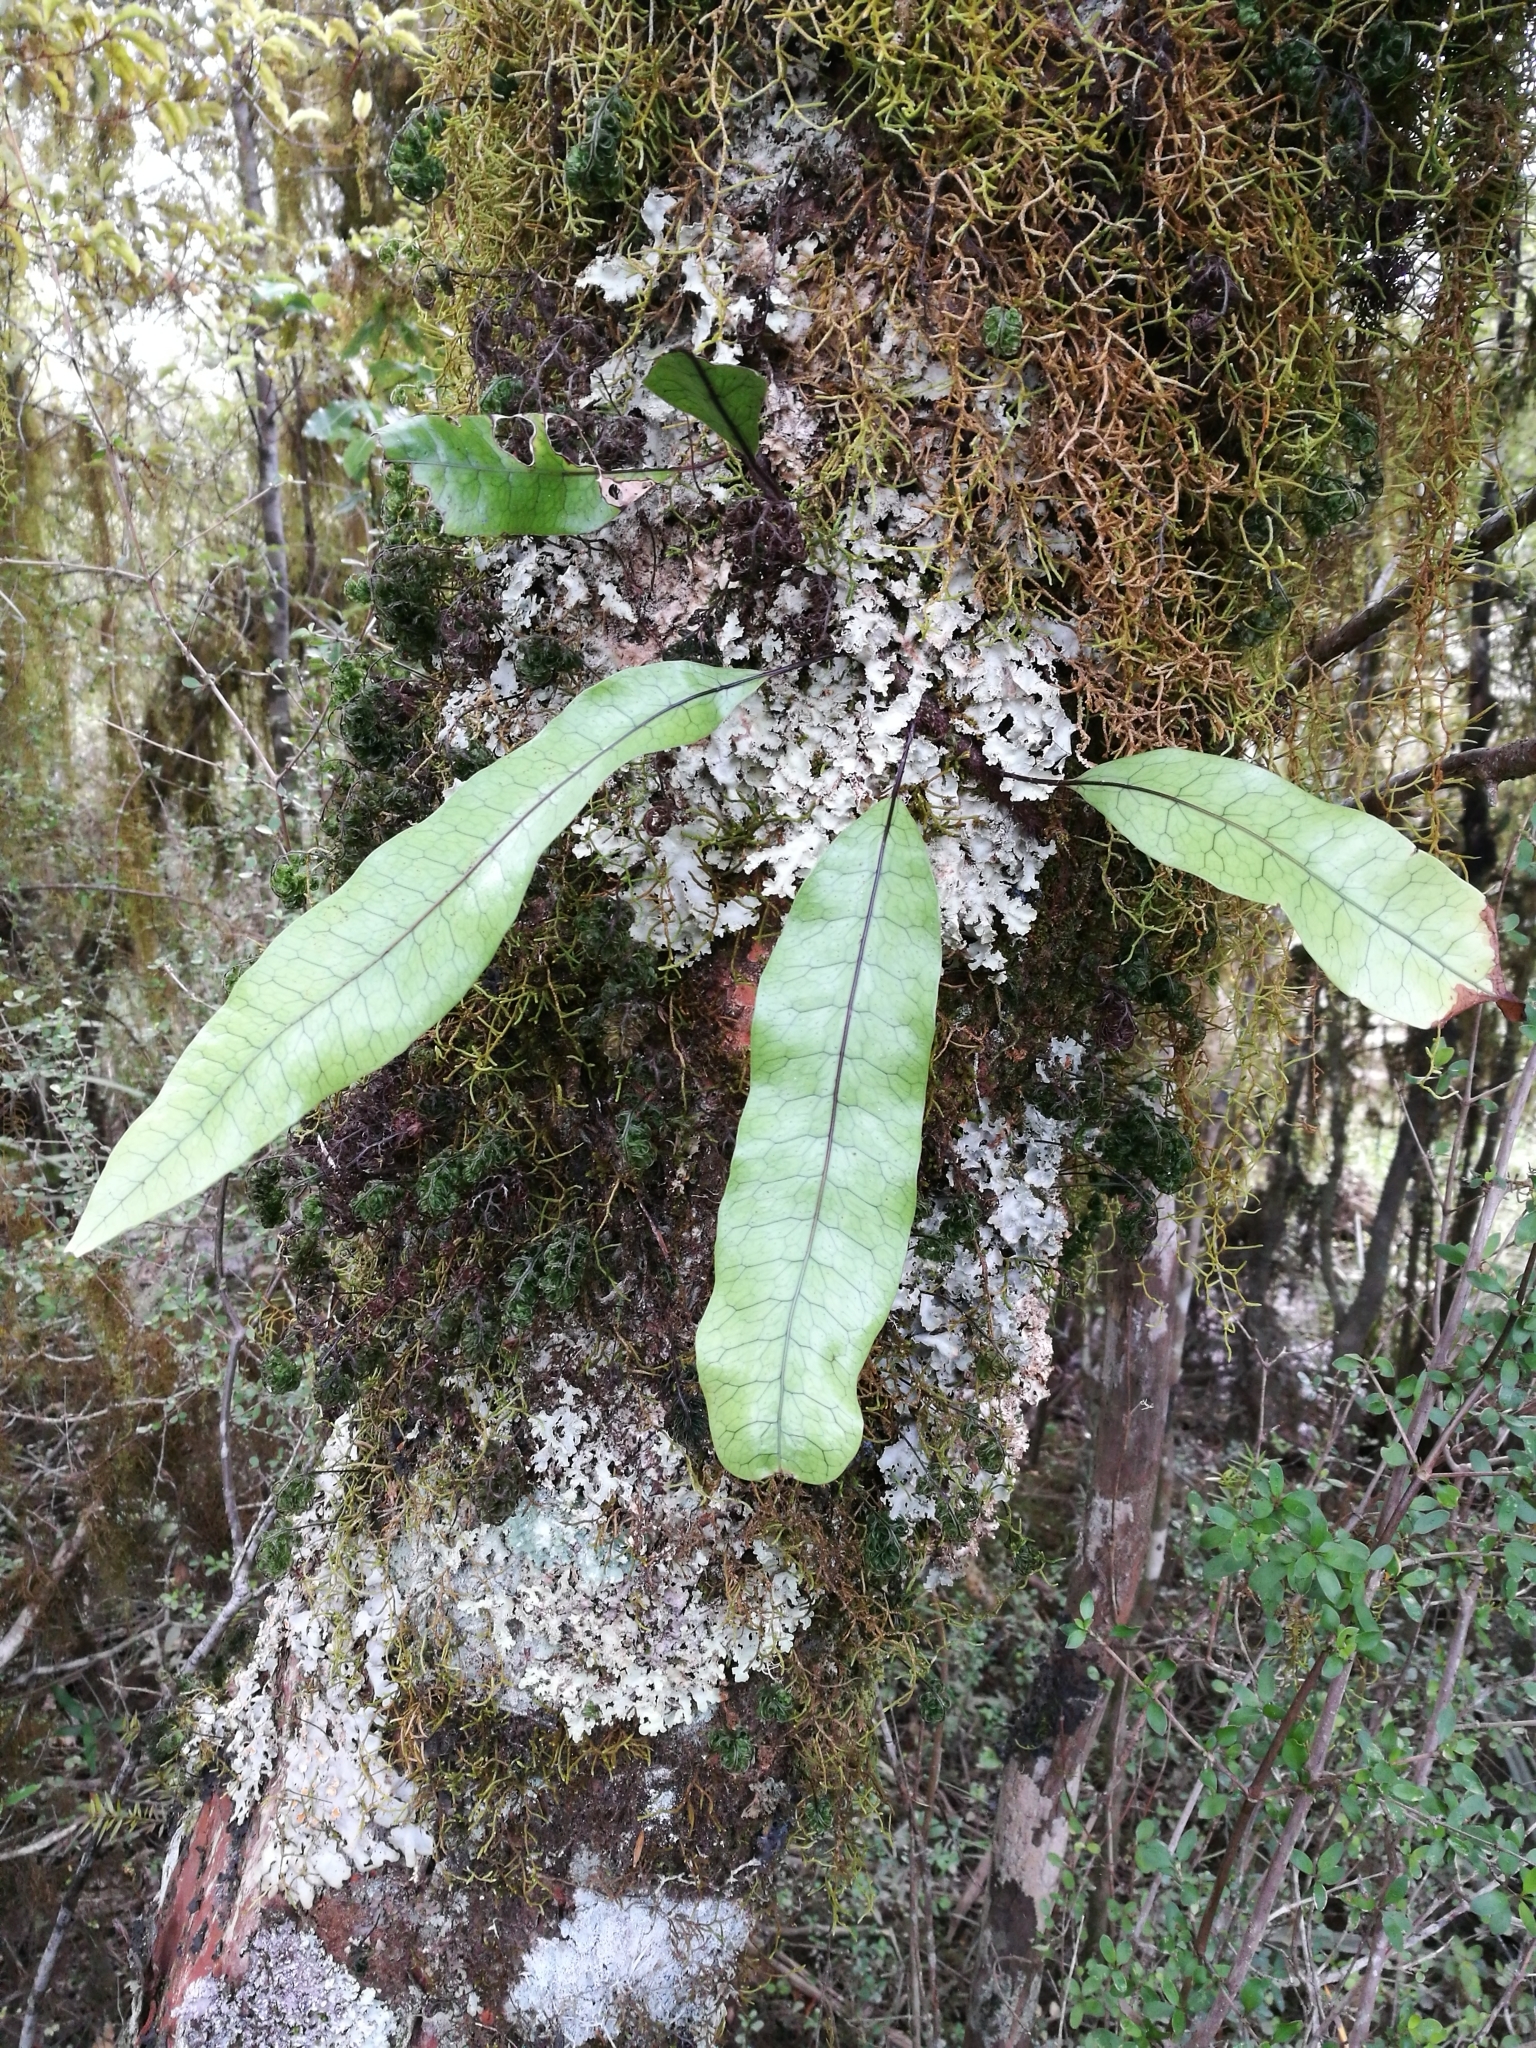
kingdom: Plantae
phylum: Tracheophyta
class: Polypodiopsida
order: Polypodiales
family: Polypodiaceae
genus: Lecanopteris
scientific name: Lecanopteris pustulata
